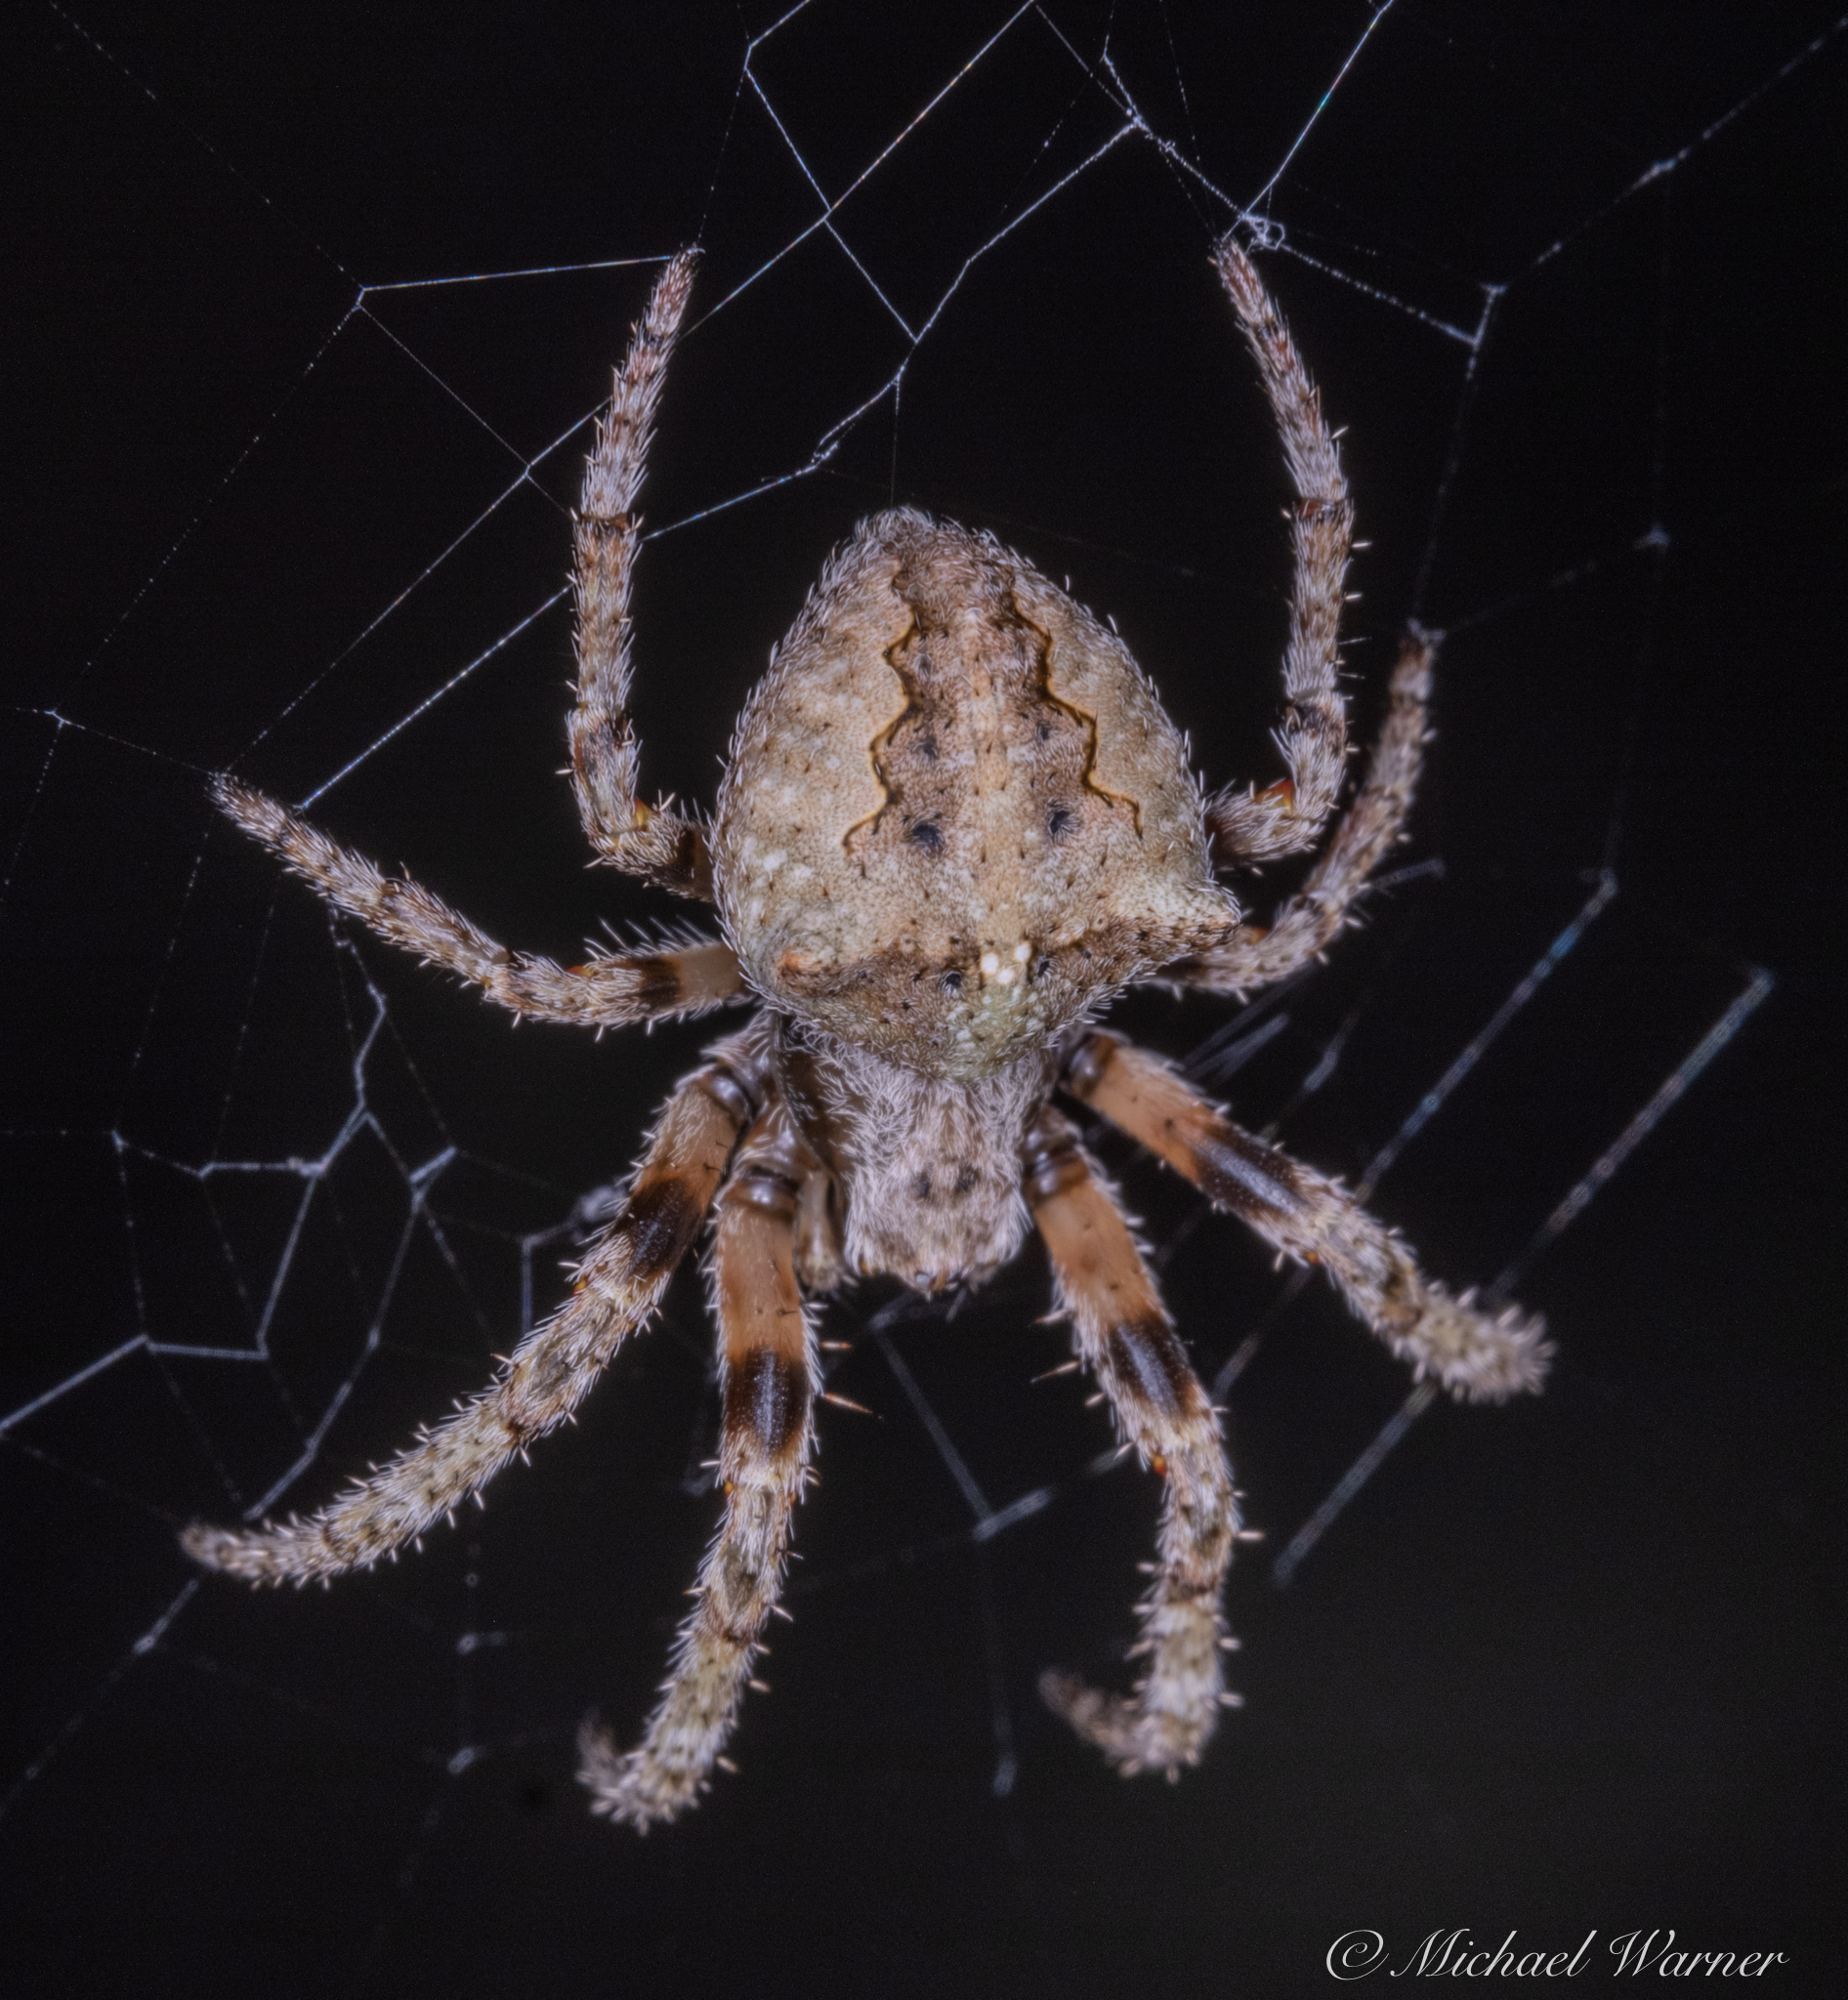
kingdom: Animalia
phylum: Arthropoda
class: Arachnida
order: Araneae
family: Araneidae
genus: Araneus
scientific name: Araneus andrewsi
